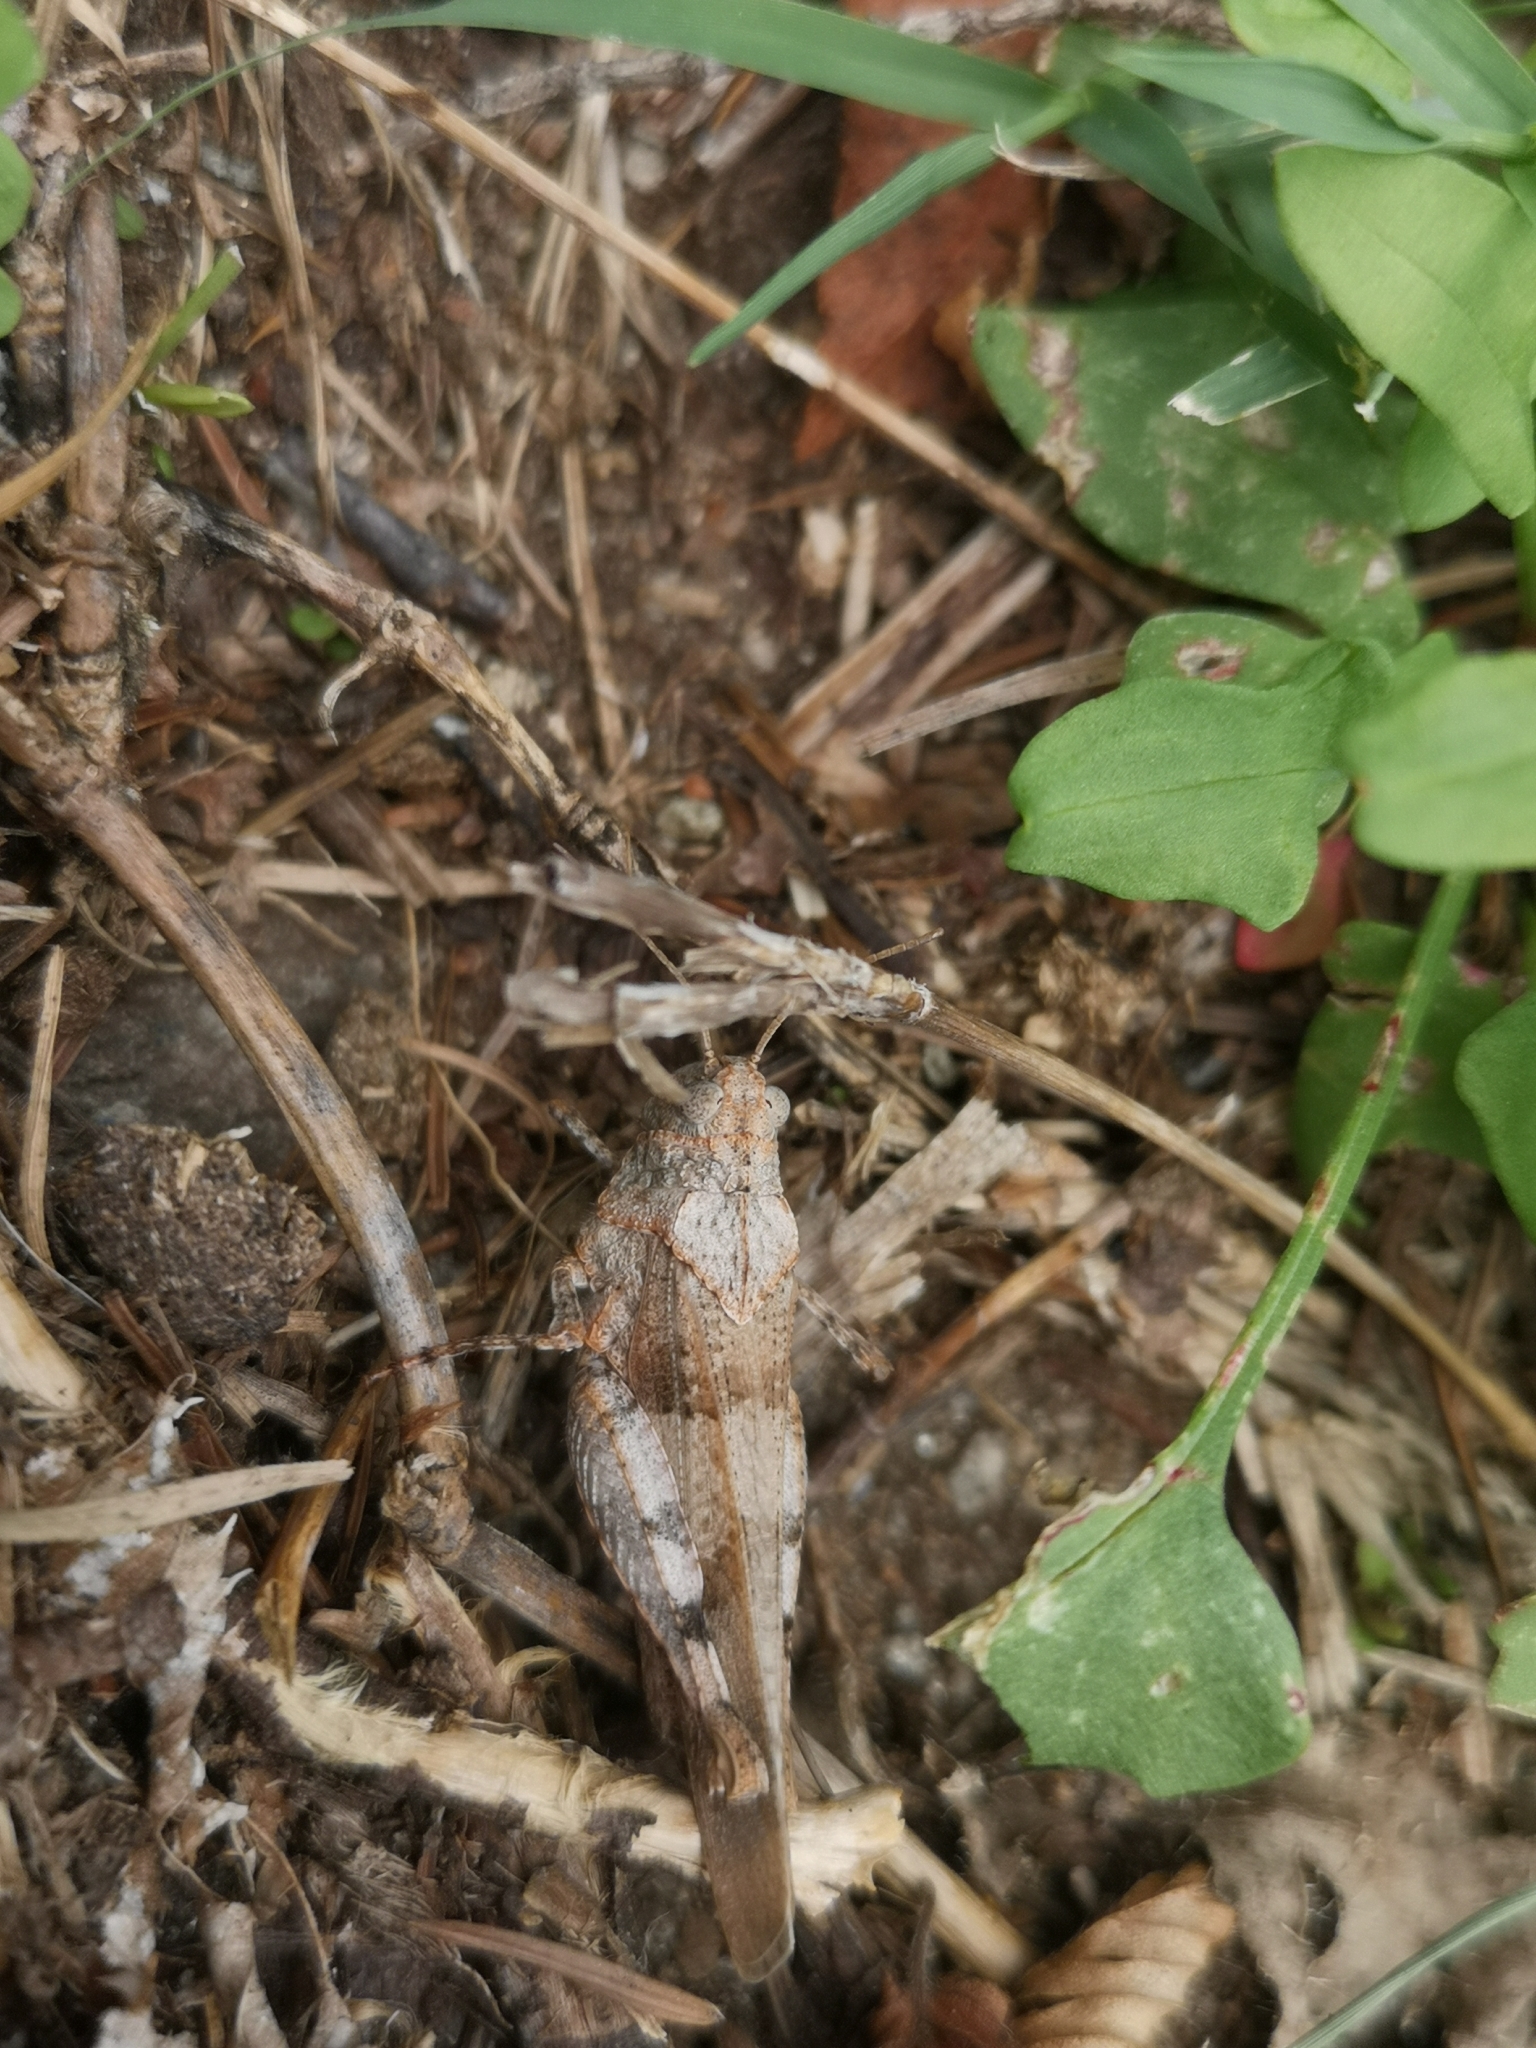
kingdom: Animalia
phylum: Arthropoda
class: Insecta
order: Orthoptera
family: Acrididae
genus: Oedipoda
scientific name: Oedipoda caerulescens
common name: Blue-winged grasshopper
